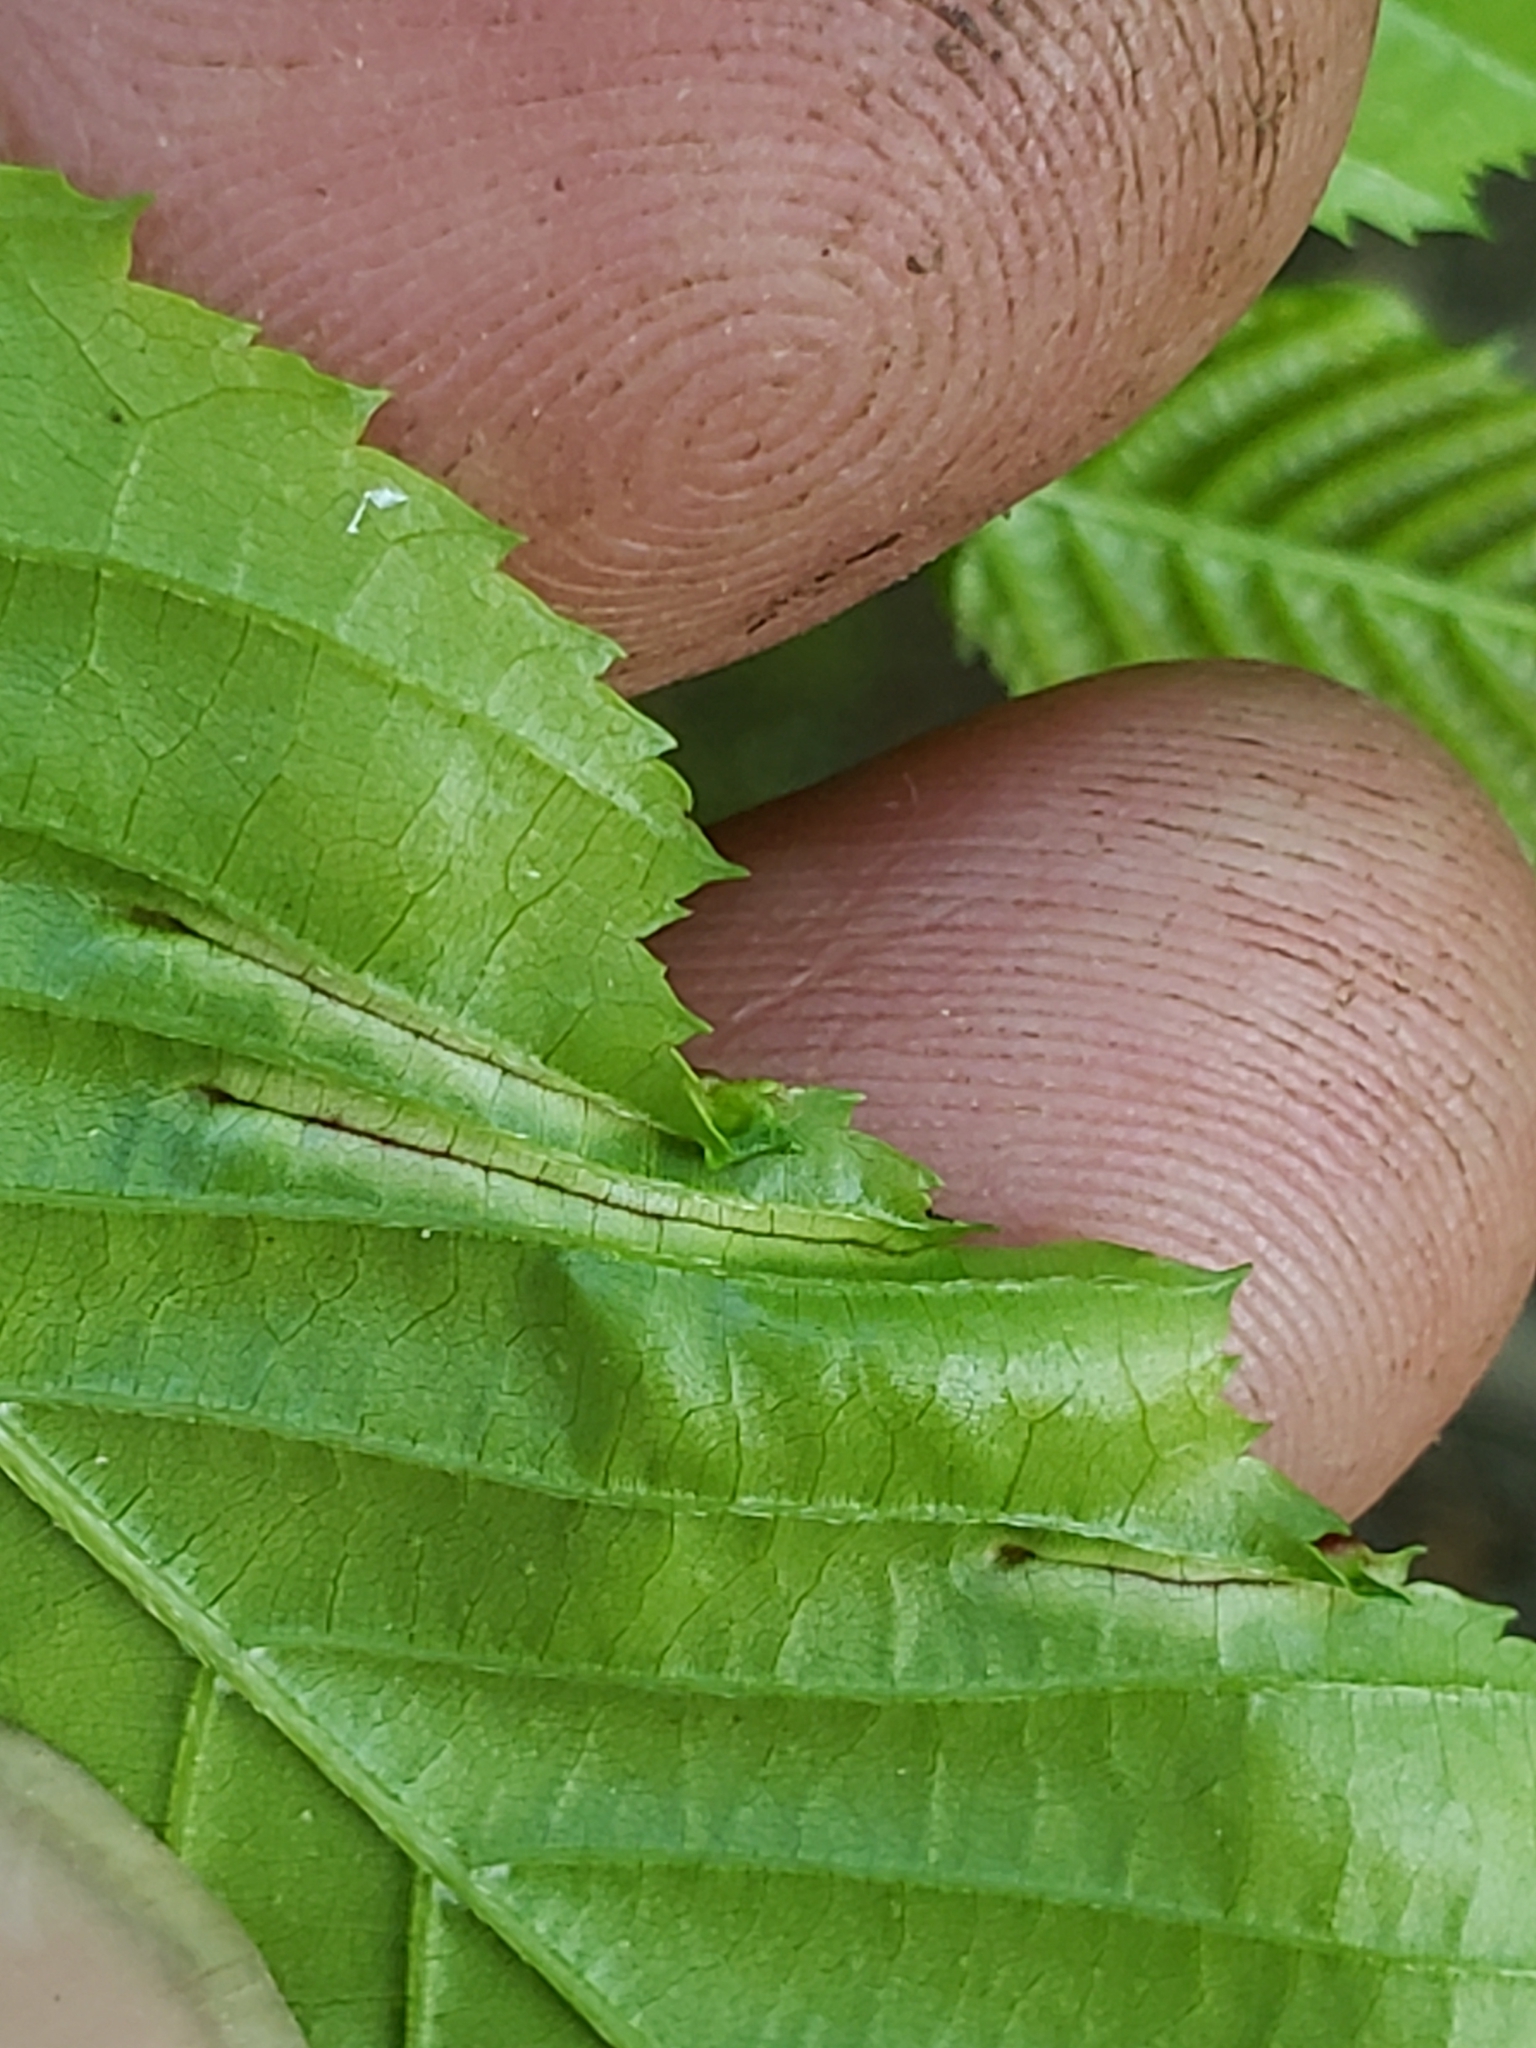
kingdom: Animalia
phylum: Arthropoda
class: Insecta
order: Diptera
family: Cecidomyiidae
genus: Dasineura
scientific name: Dasineura pudibunda
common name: Hornbeam leaf gall midge
